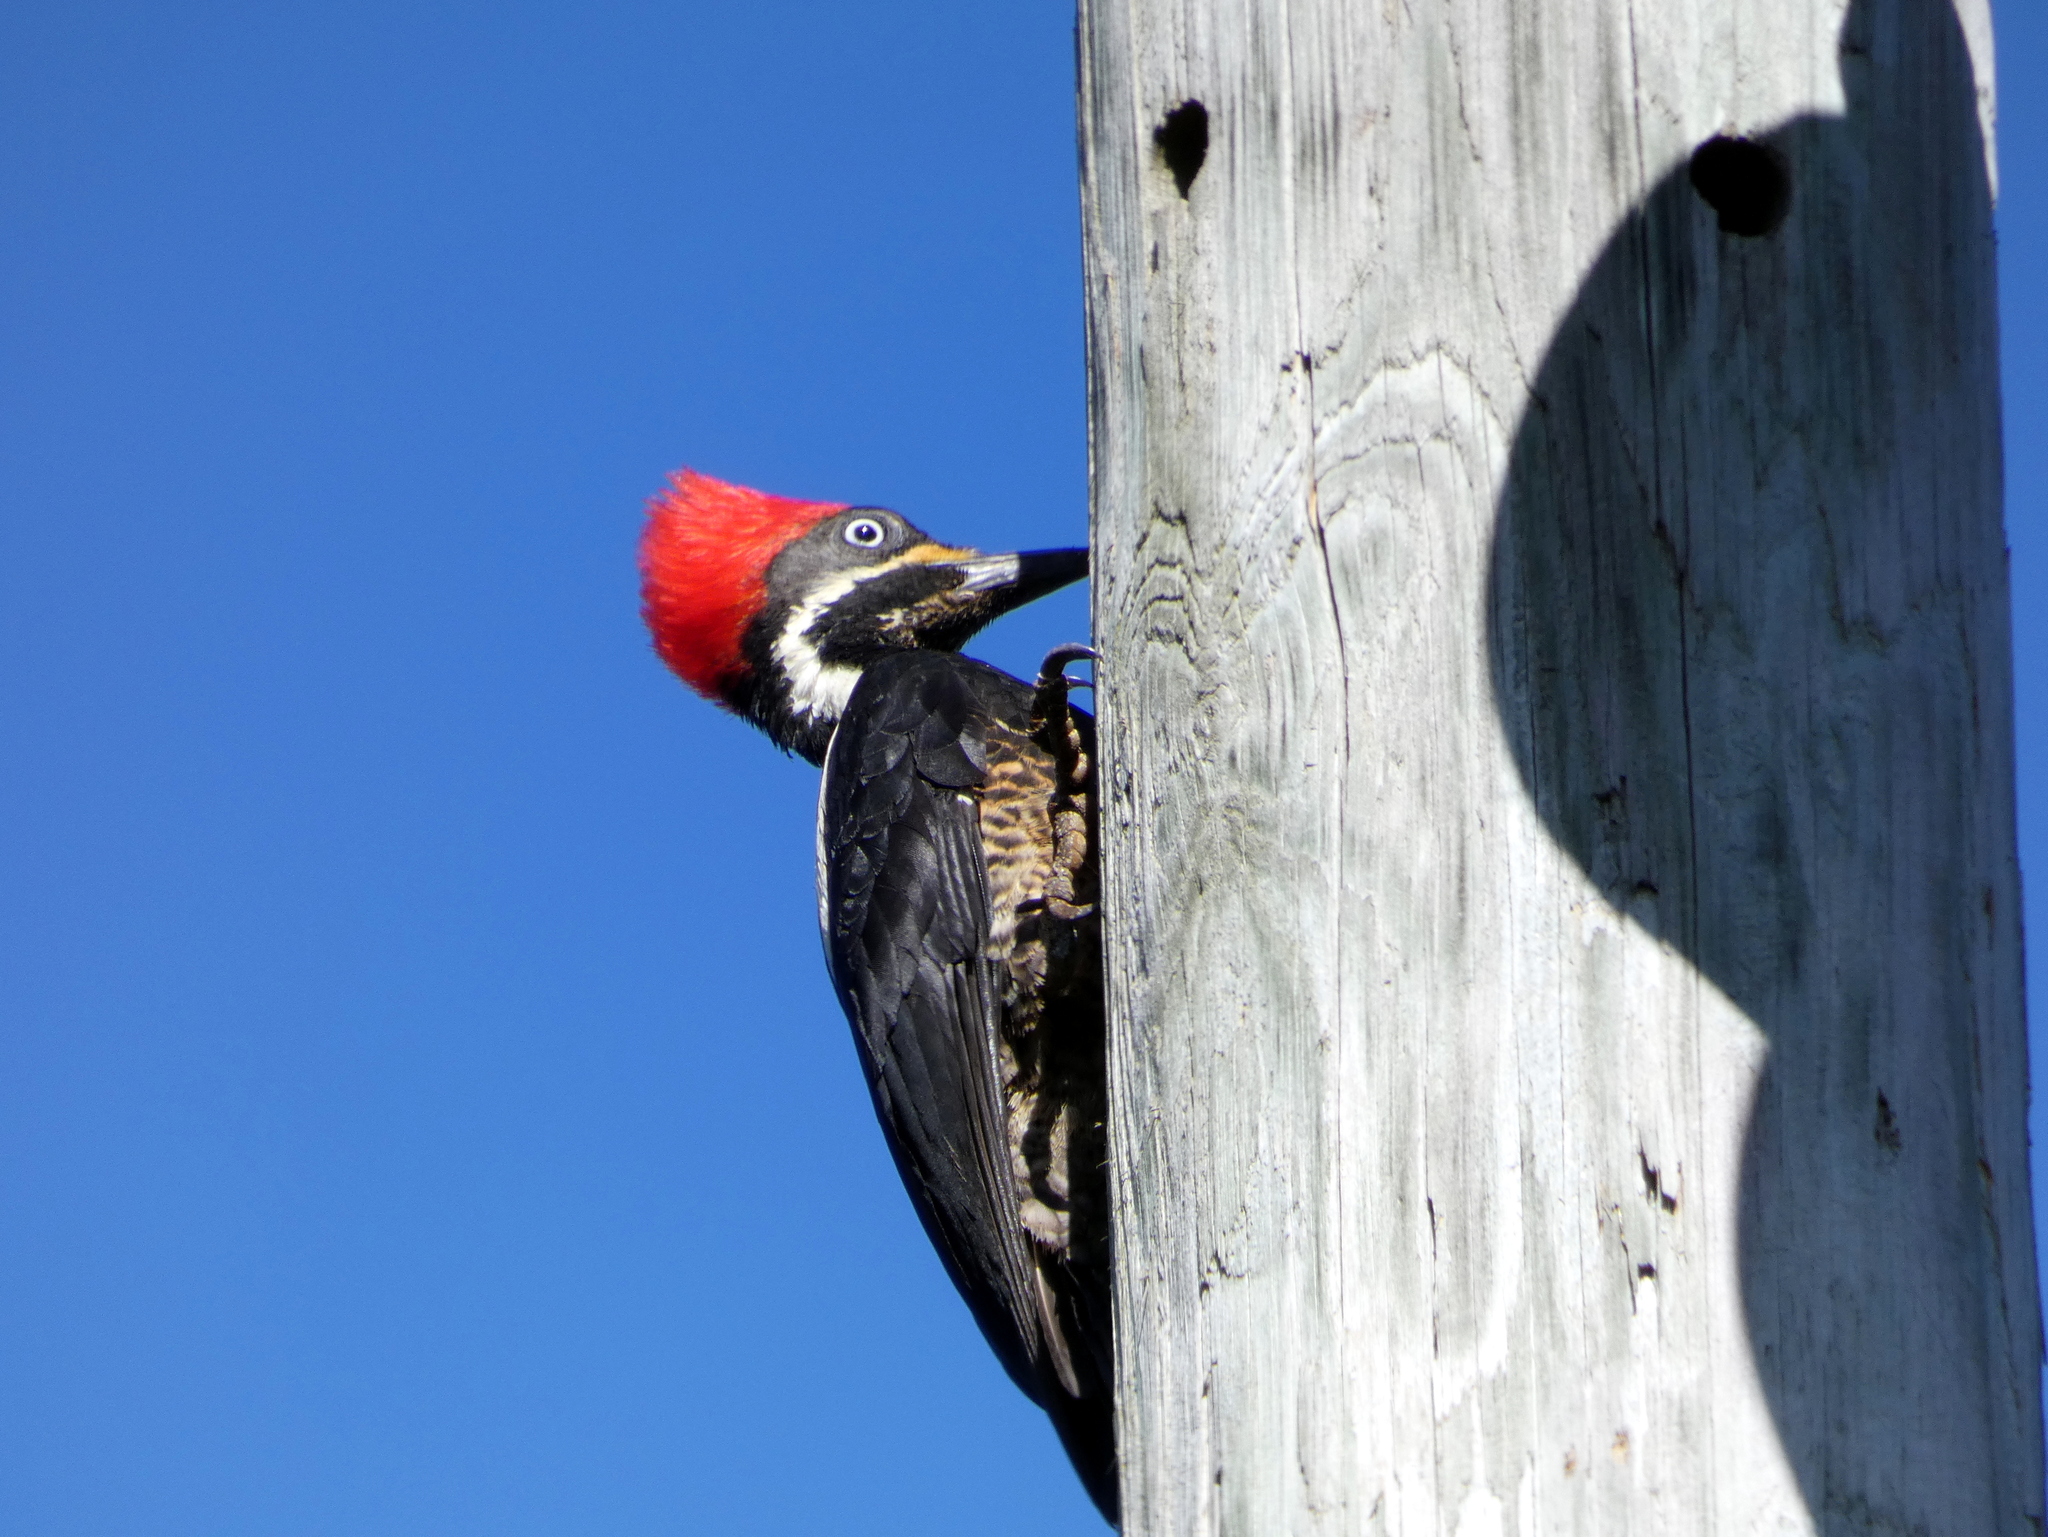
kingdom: Animalia
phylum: Chordata
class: Aves
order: Piciformes
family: Picidae
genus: Dryocopus
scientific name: Dryocopus lineatus
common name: Lineated woodpecker
